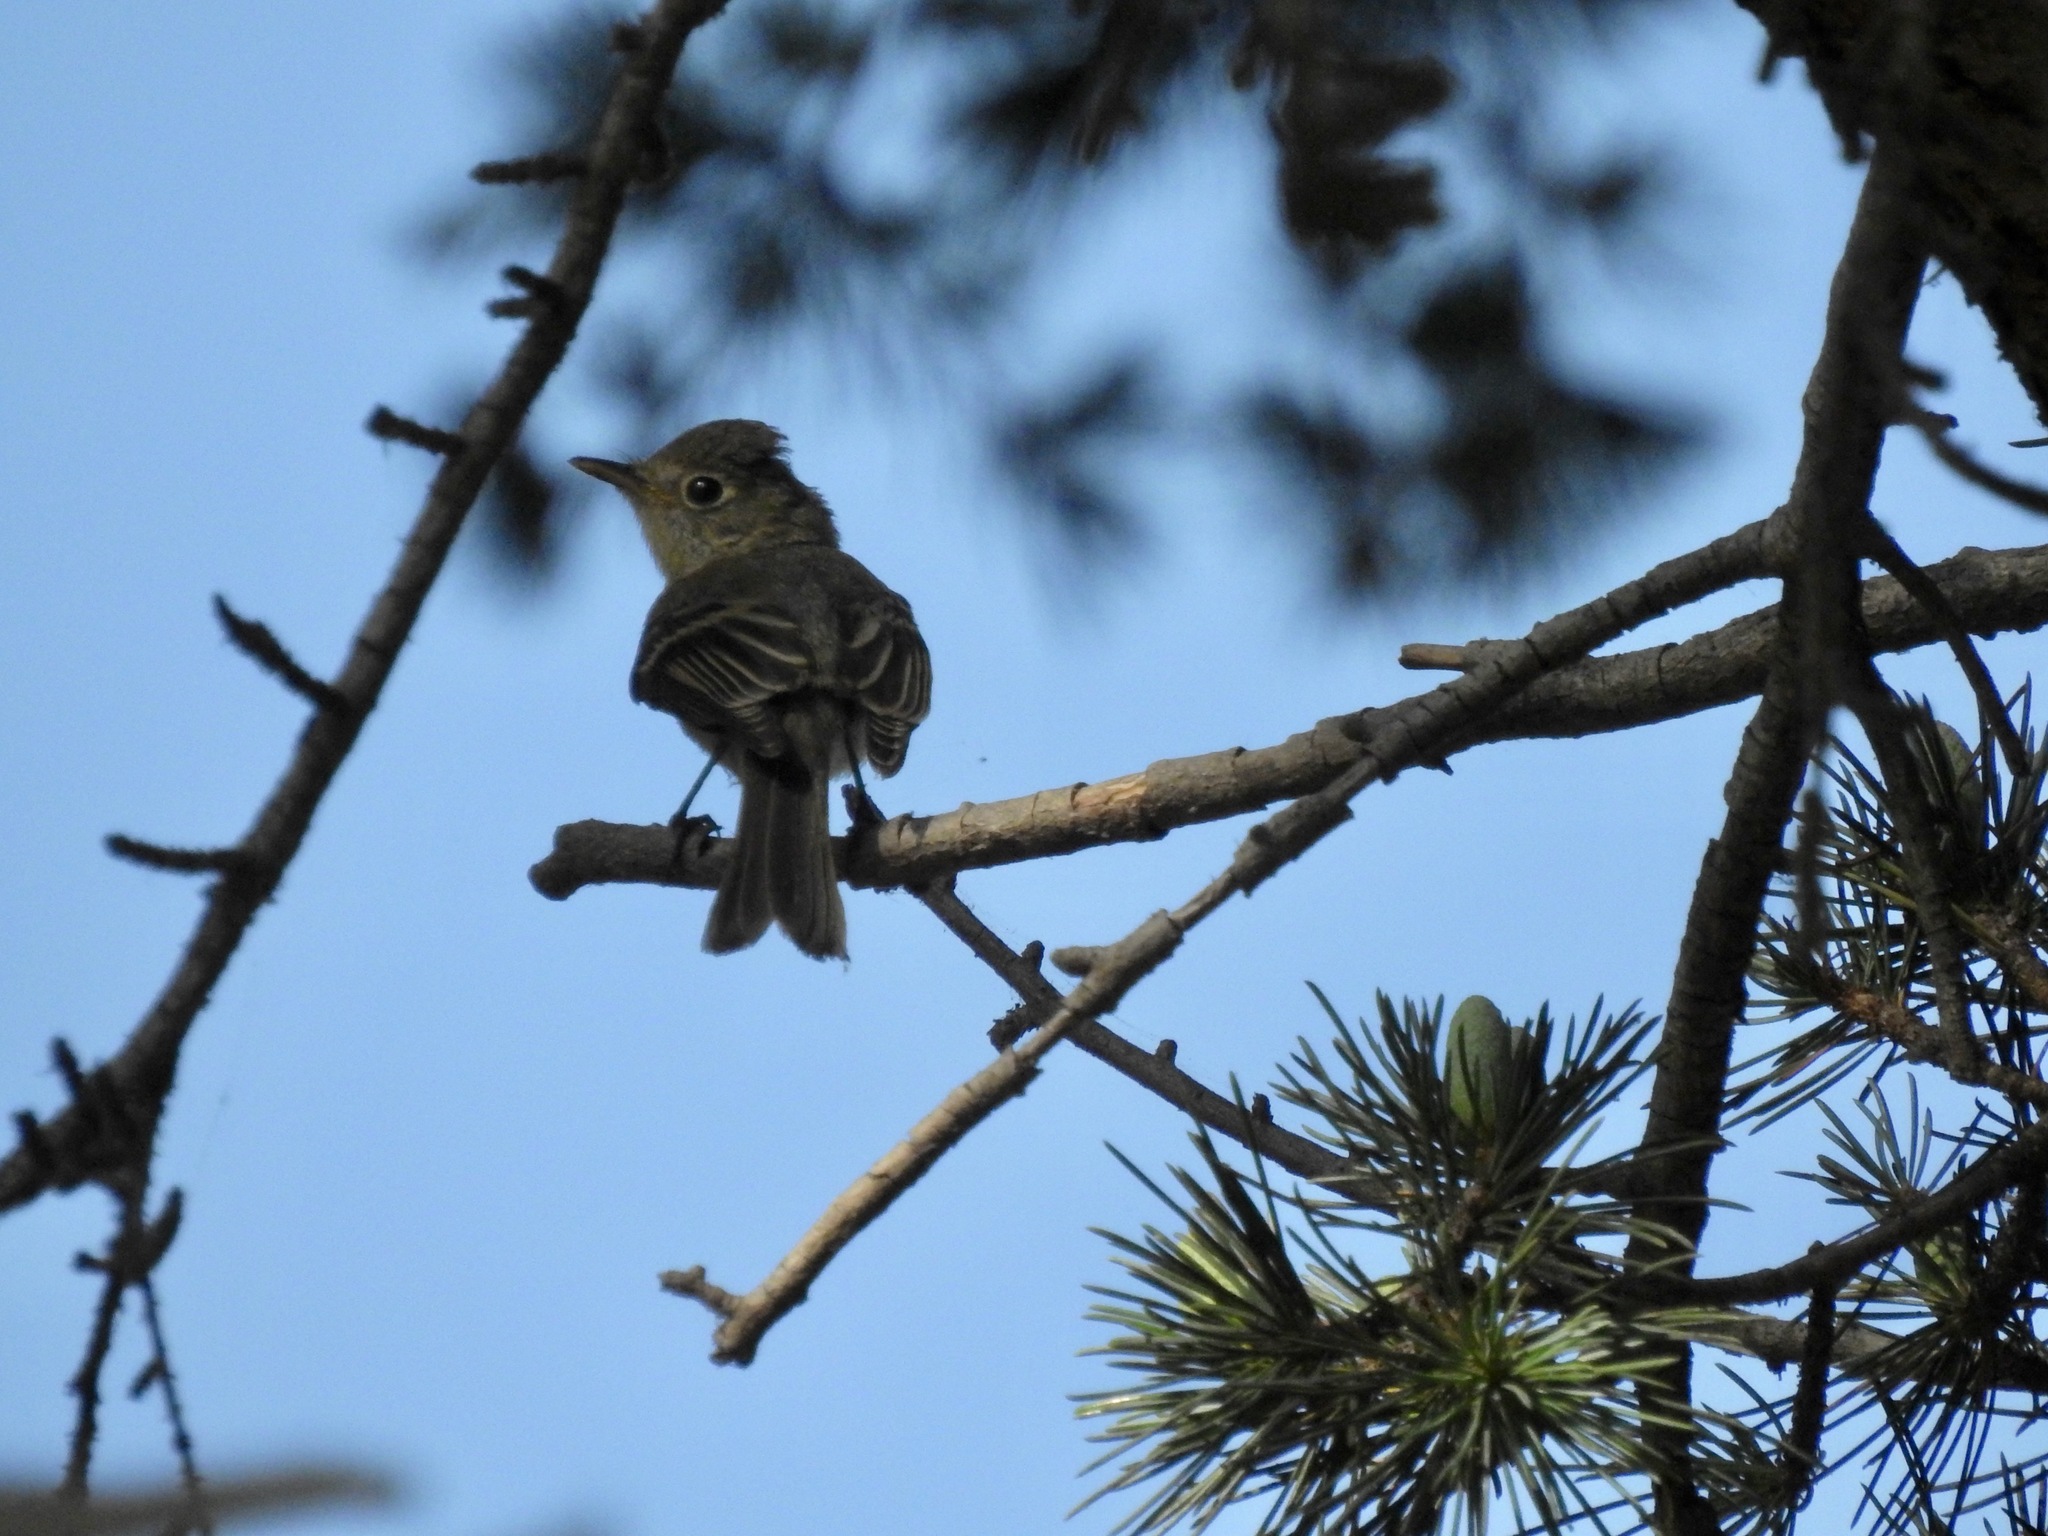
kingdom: Animalia
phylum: Chordata
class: Aves
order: Passeriformes
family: Tyrannidae
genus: Empidonax
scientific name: Empidonax difficilis
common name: Pacific-slope flycatcher
